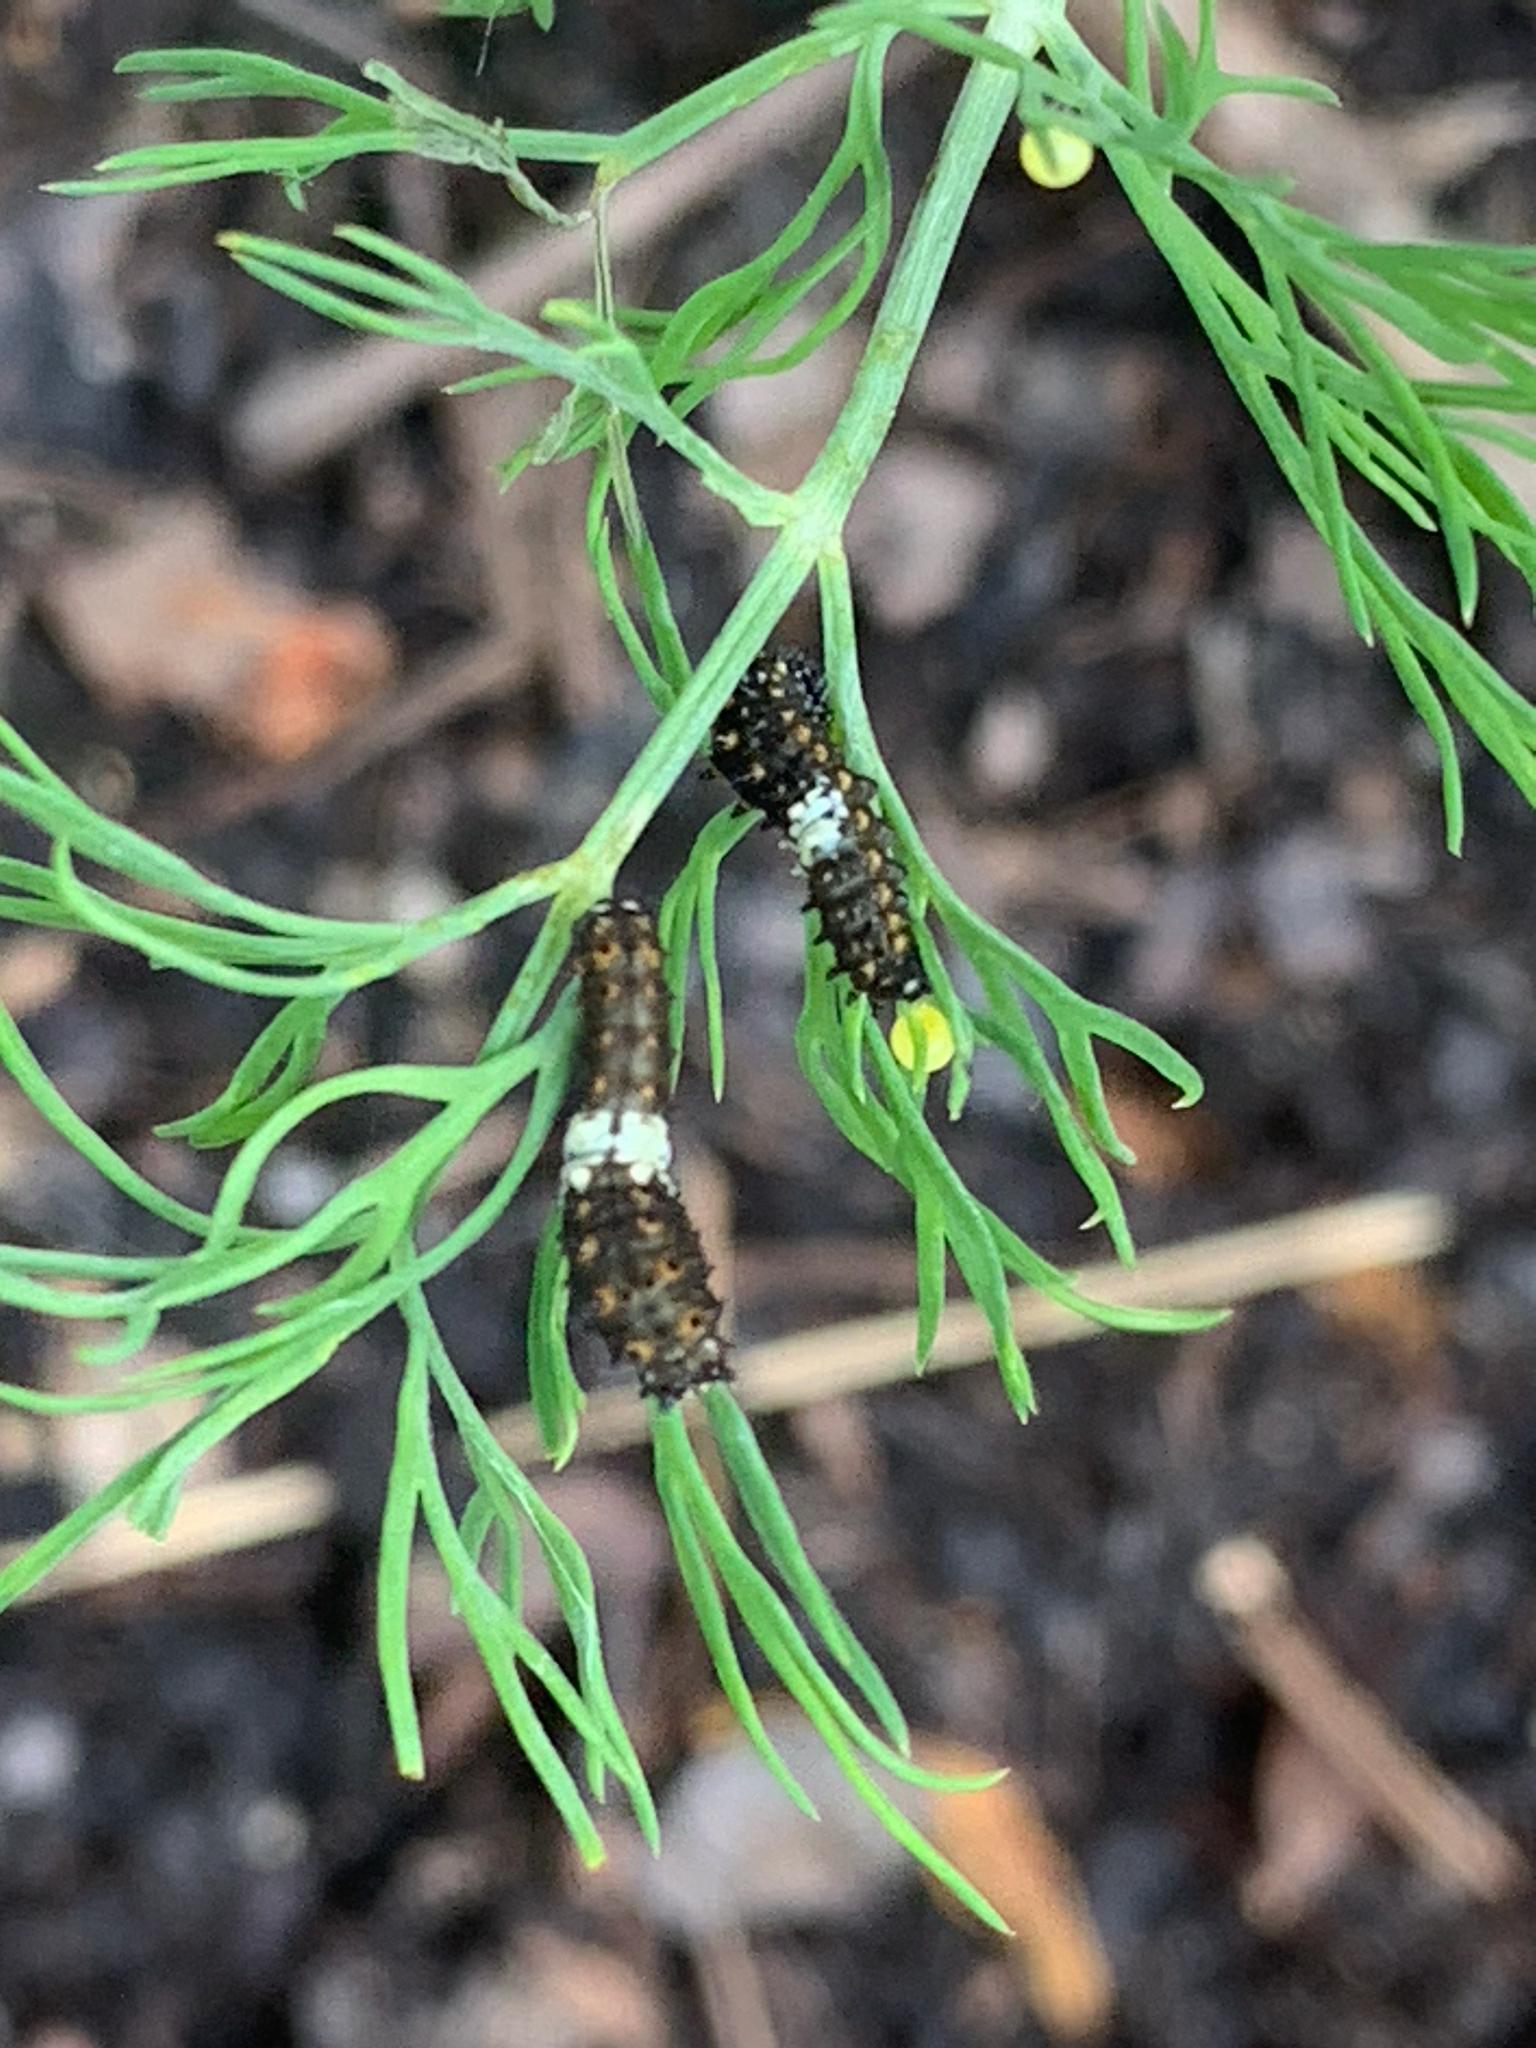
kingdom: Animalia
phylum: Arthropoda
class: Insecta
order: Lepidoptera
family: Papilionidae
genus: Papilio
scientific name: Papilio polyxenes
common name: Black swallowtail
